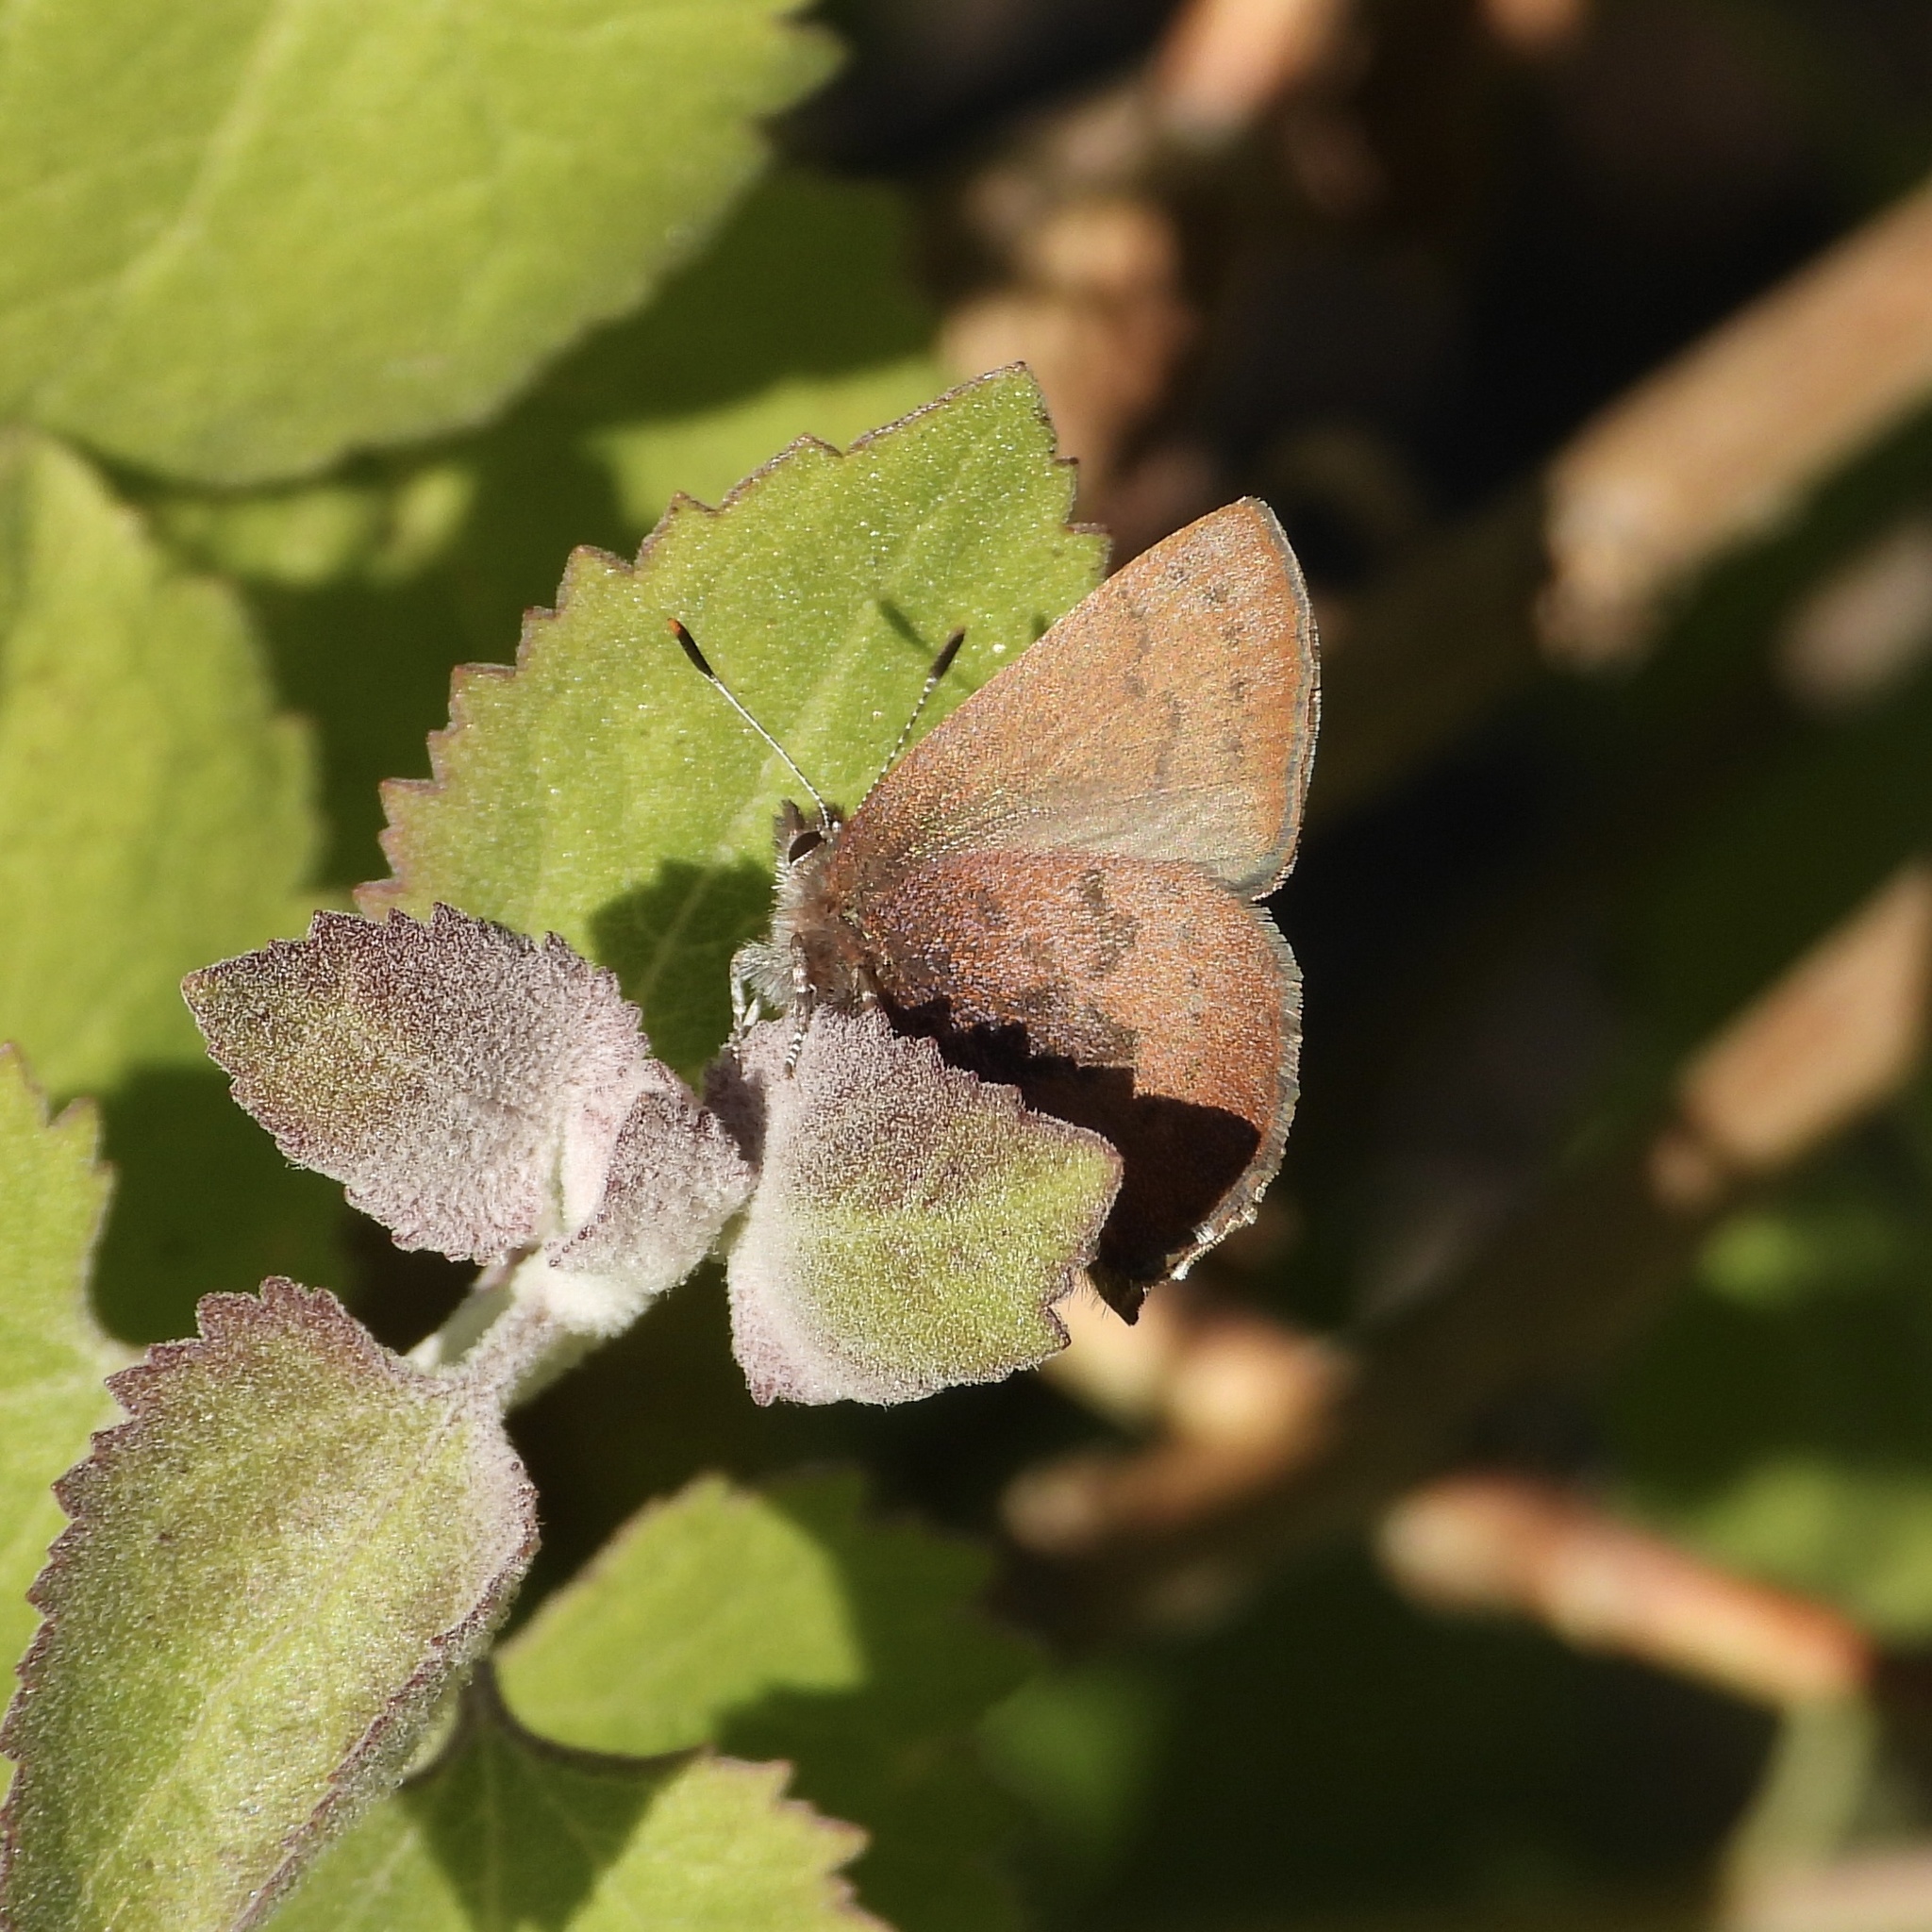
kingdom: Animalia
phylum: Arthropoda
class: Insecta
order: Lepidoptera
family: Lycaenidae
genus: Incisalia
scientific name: Incisalia irioides
